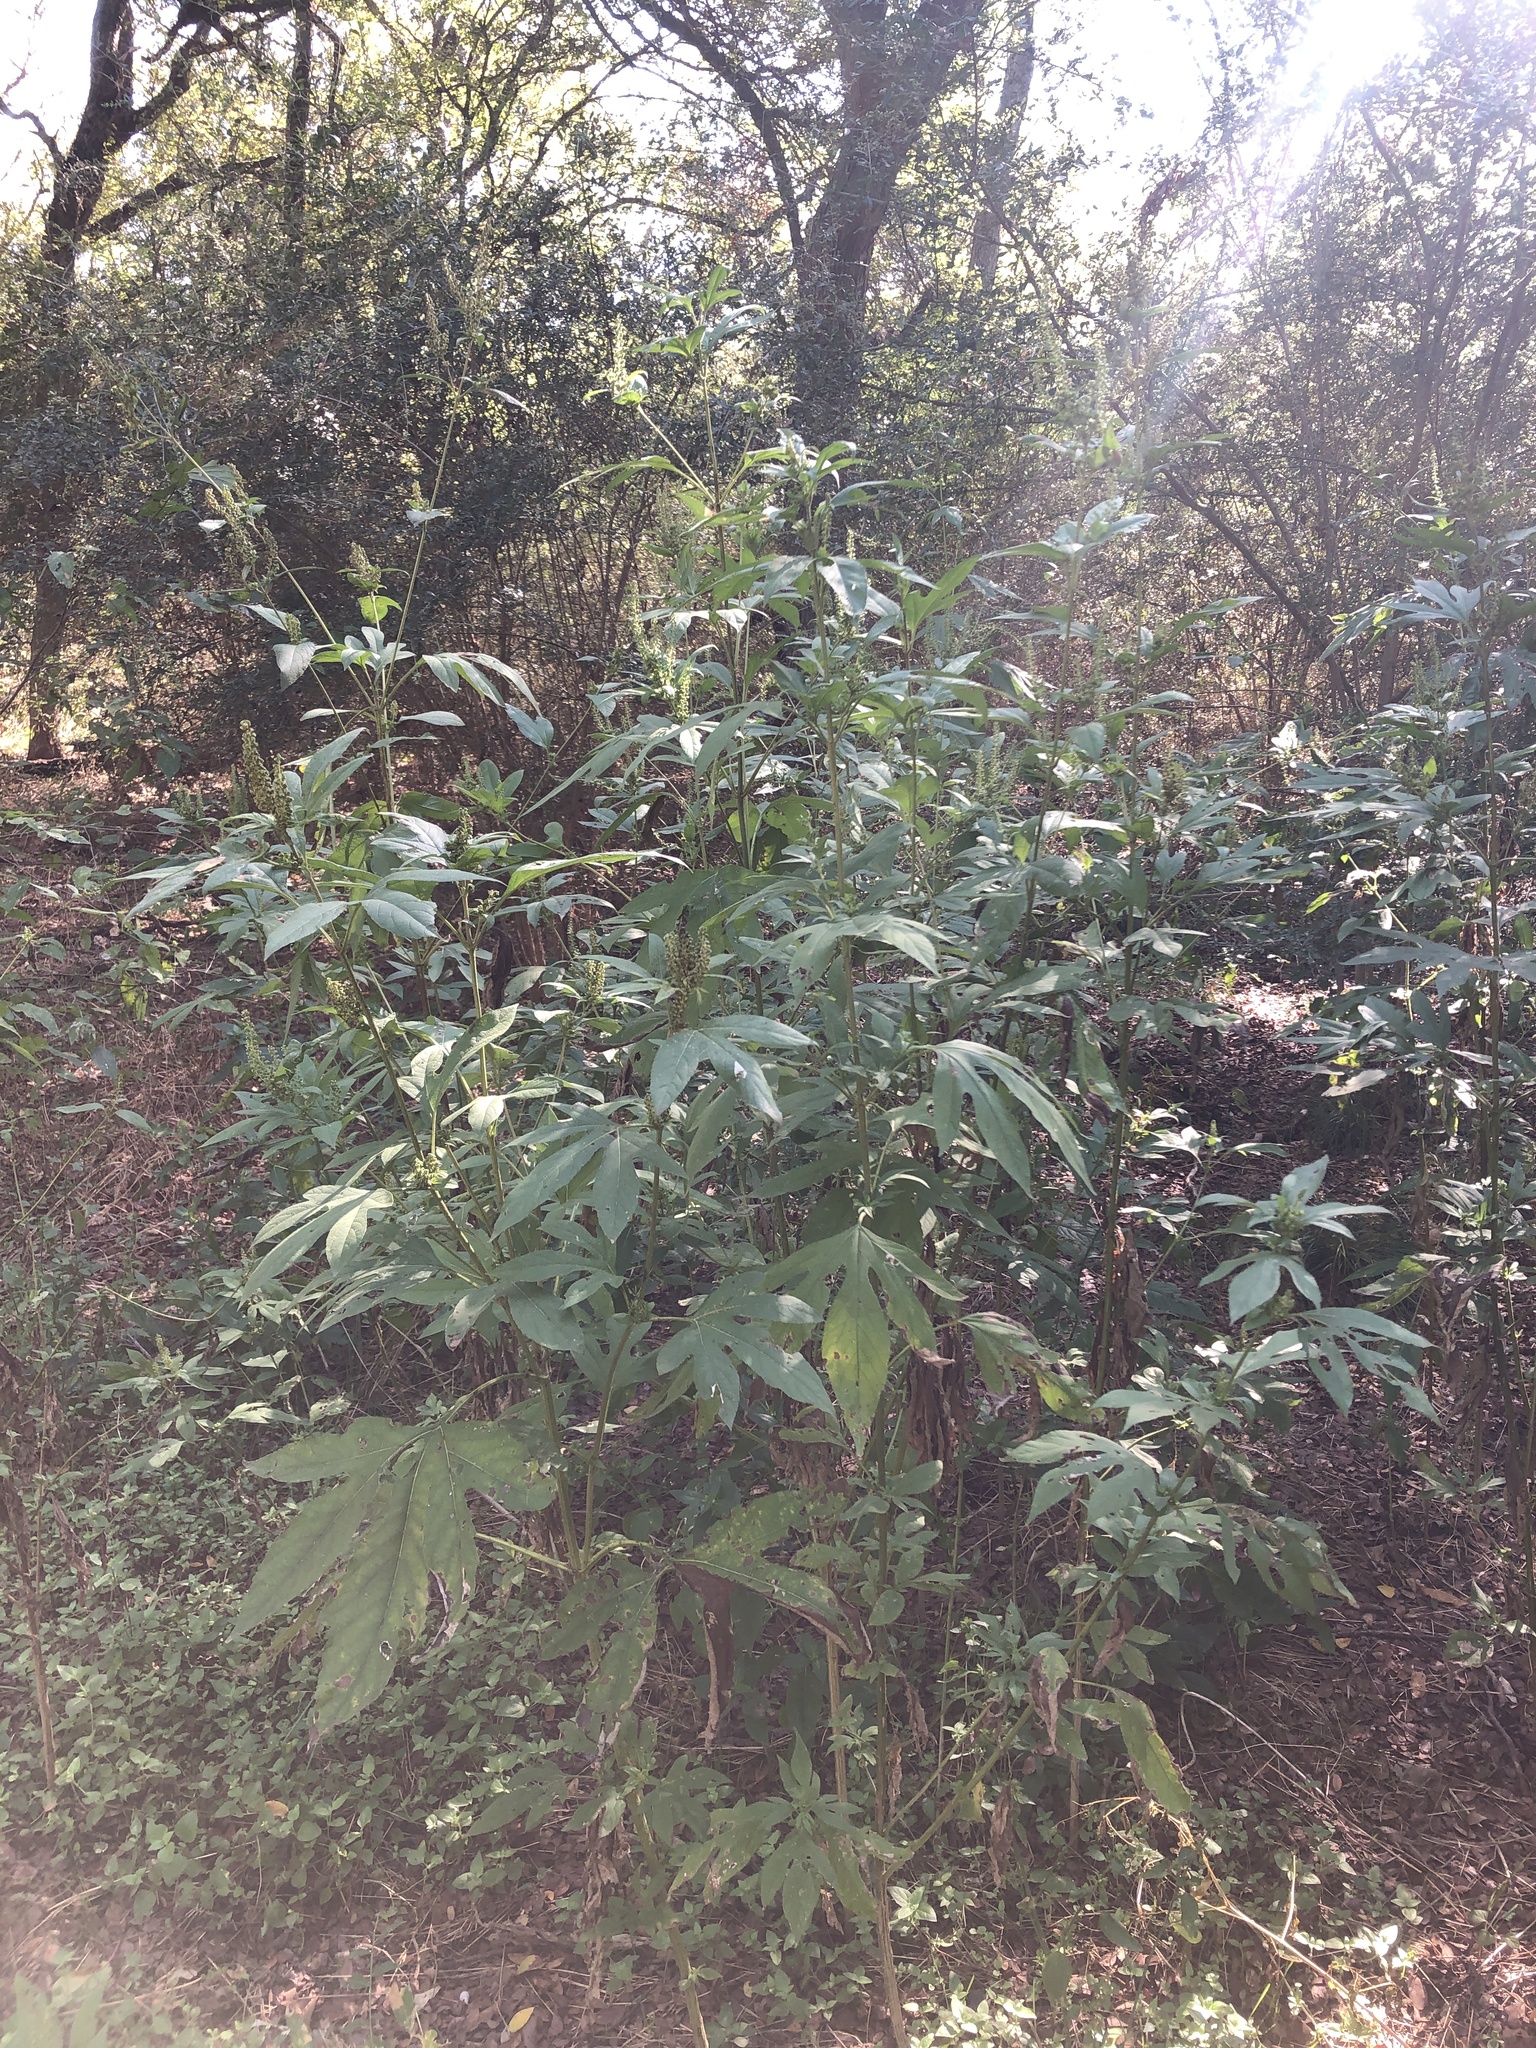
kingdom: Plantae
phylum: Tracheophyta
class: Magnoliopsida
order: Asterales
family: Asteraceae
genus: Ambrosia
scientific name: Ambrosia trifida
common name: Giant ragweed
